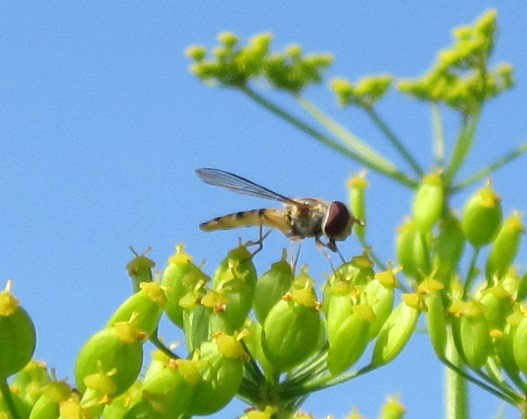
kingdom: Plantae
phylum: Tracheophyta
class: Magnoliopsida
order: Apiales
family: Apiaceae
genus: Pastinaca
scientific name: Pastinaca sativa
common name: Wild parsnip
